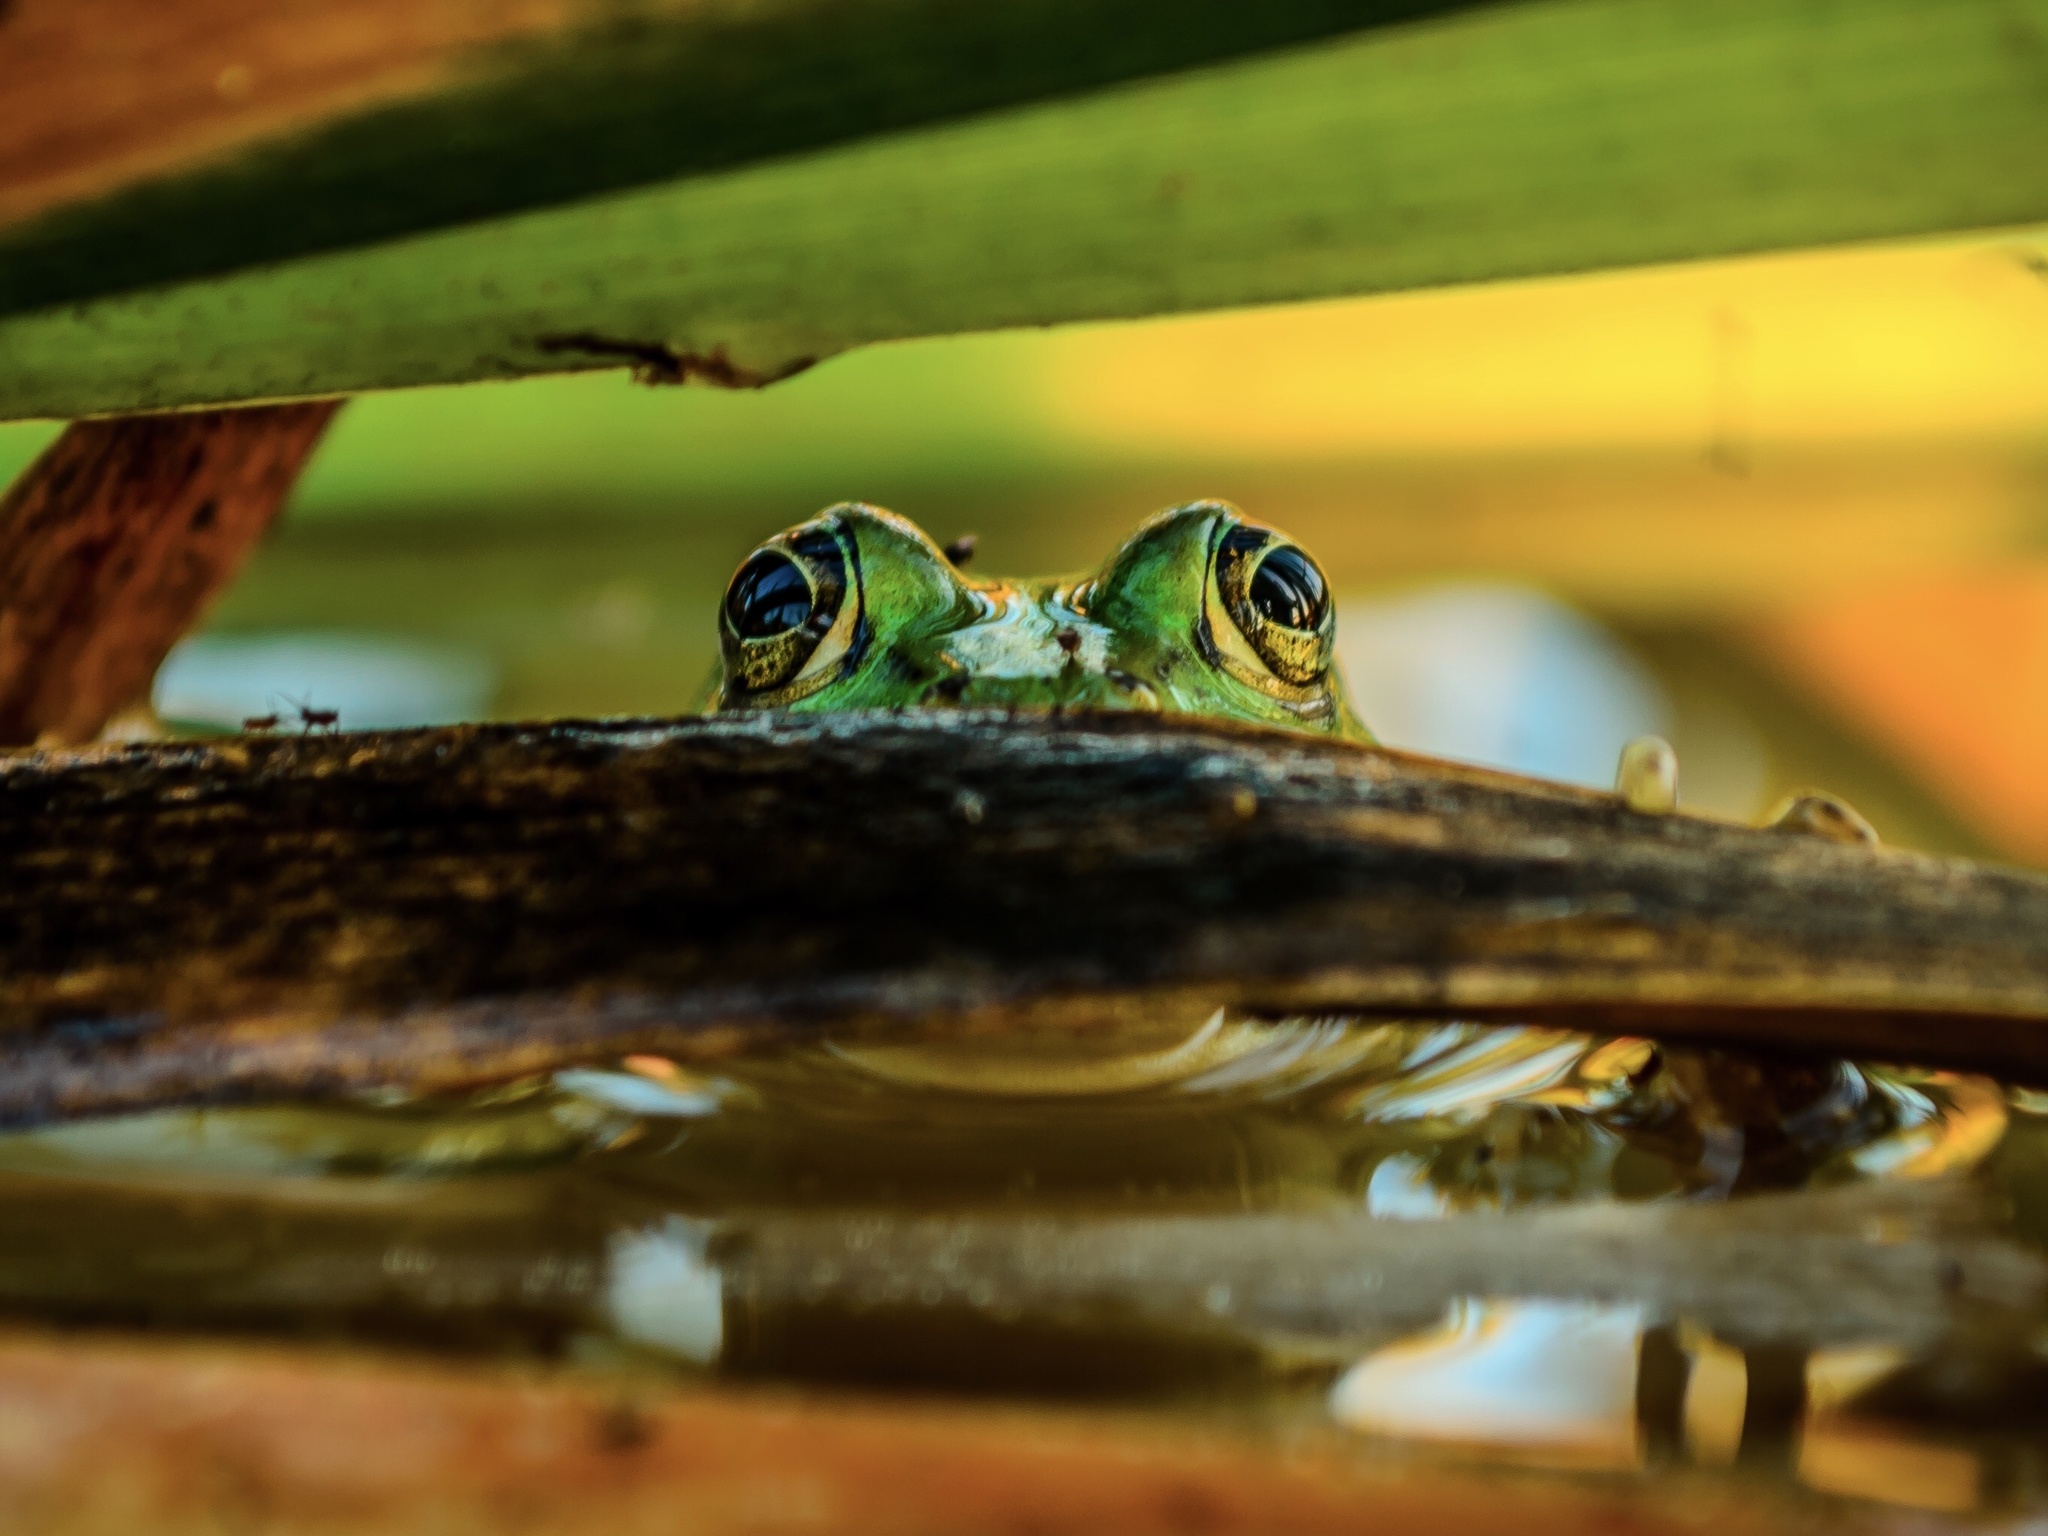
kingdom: Animalia
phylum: Chordata
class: Amphibia
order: Anura
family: Ranidae
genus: Pelophylax
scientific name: Pelophylax
